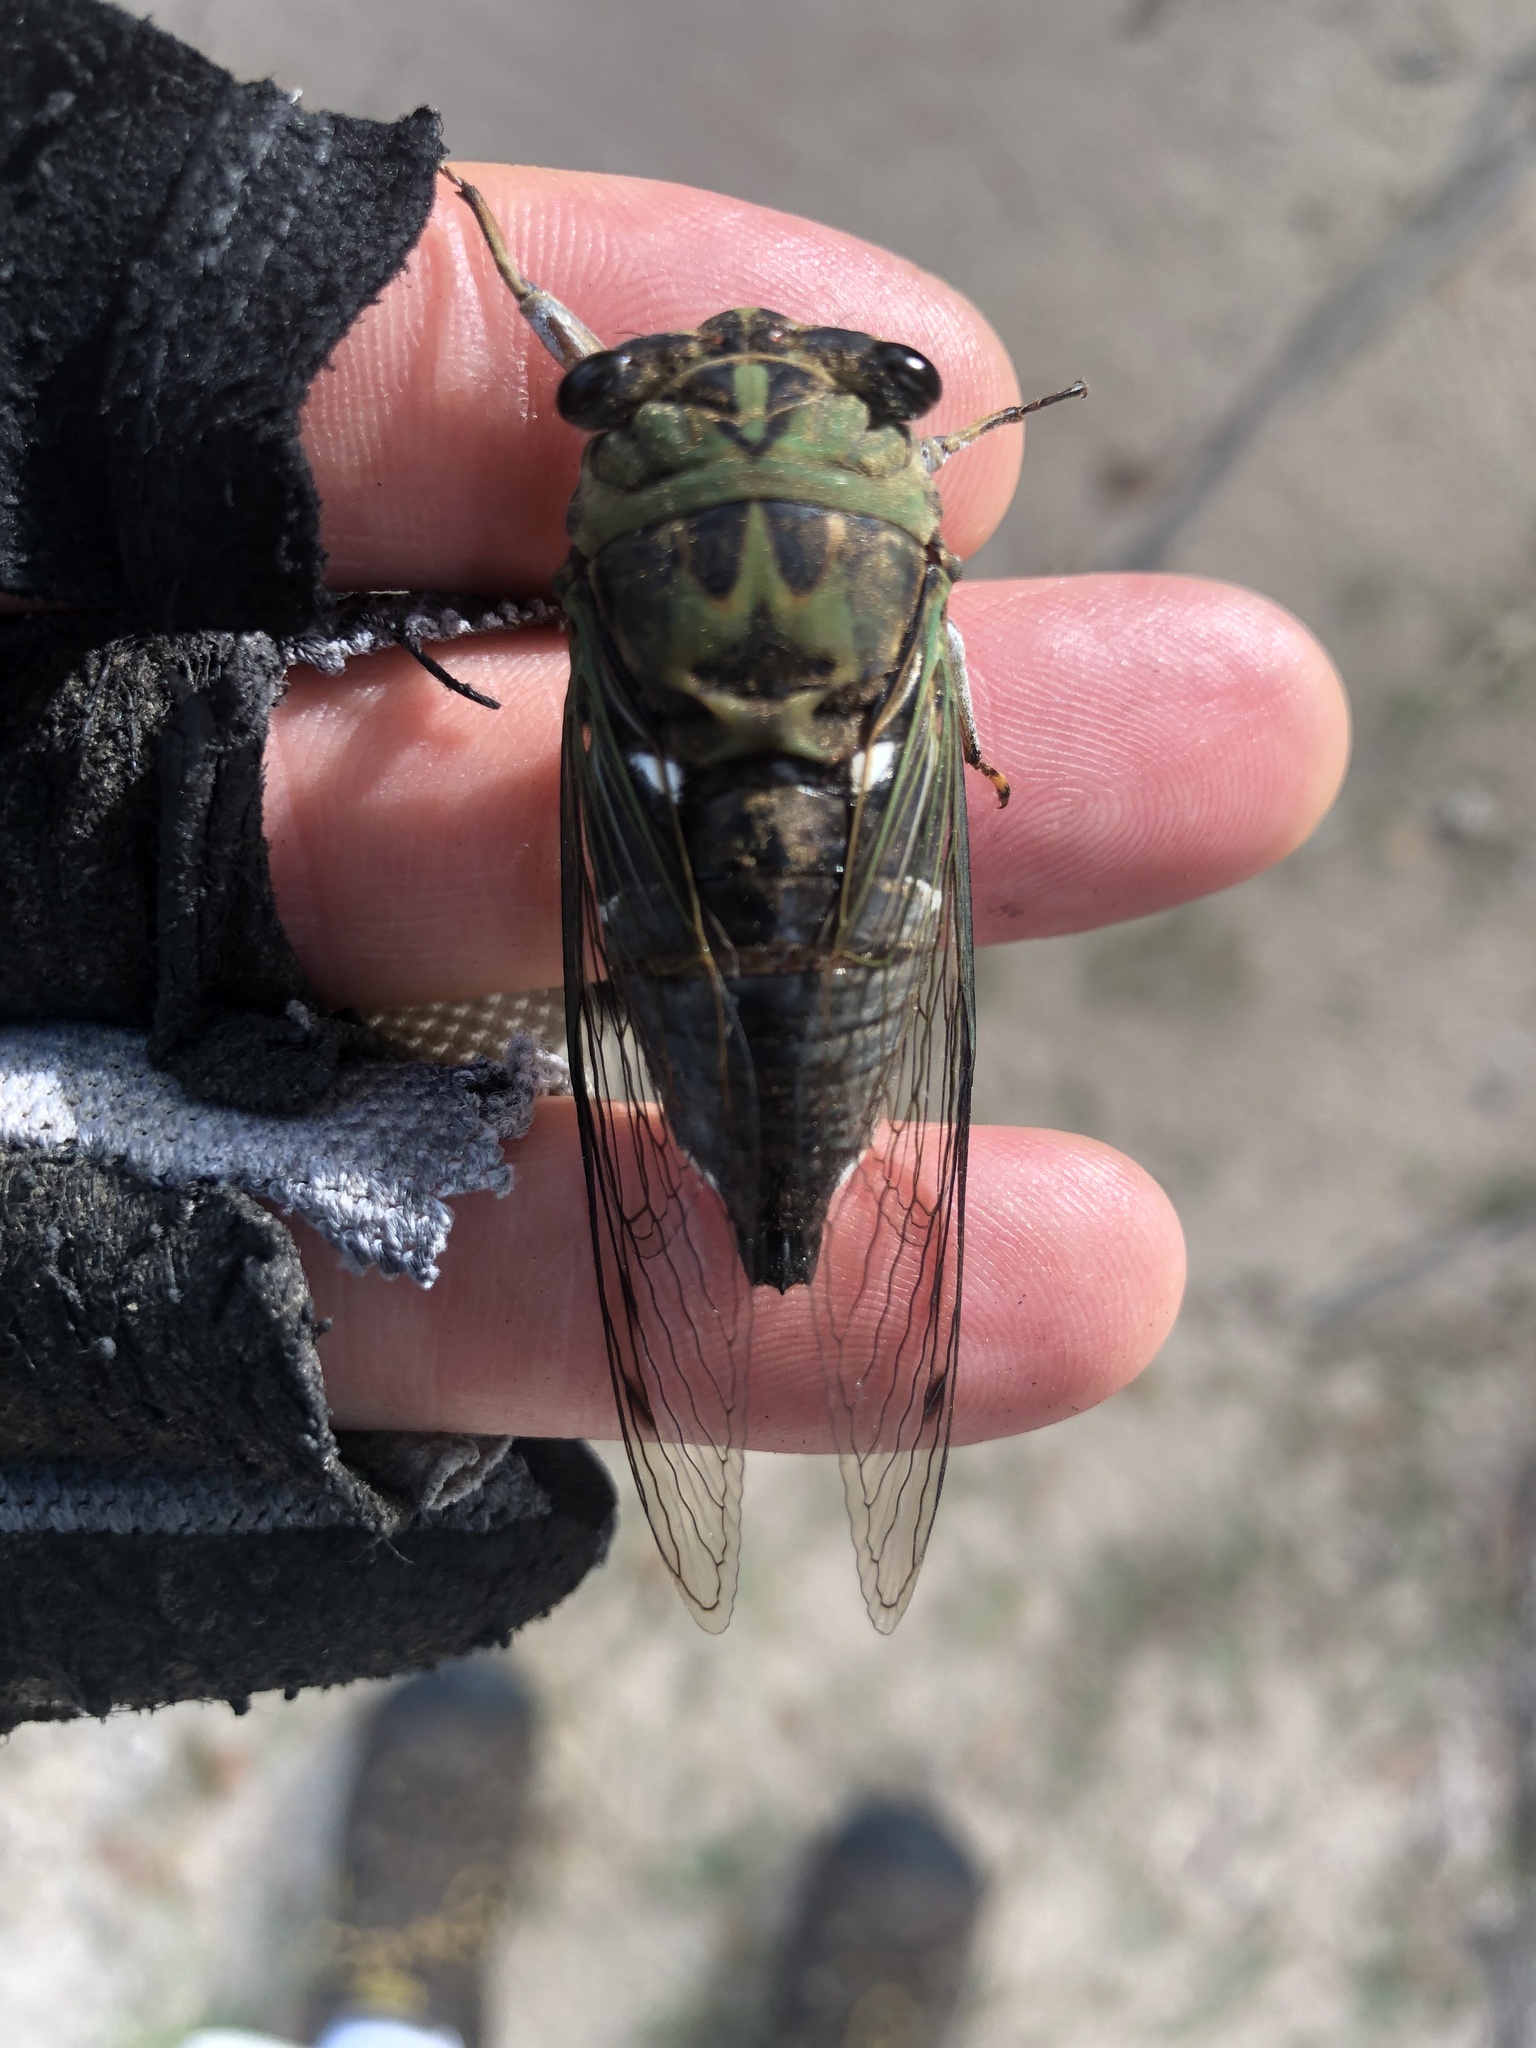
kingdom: Animalia
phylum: Arthropoda
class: Insecta
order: Hemiptera
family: Cicadidae
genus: Neotibicen
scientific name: Neotibicen pruinosus
